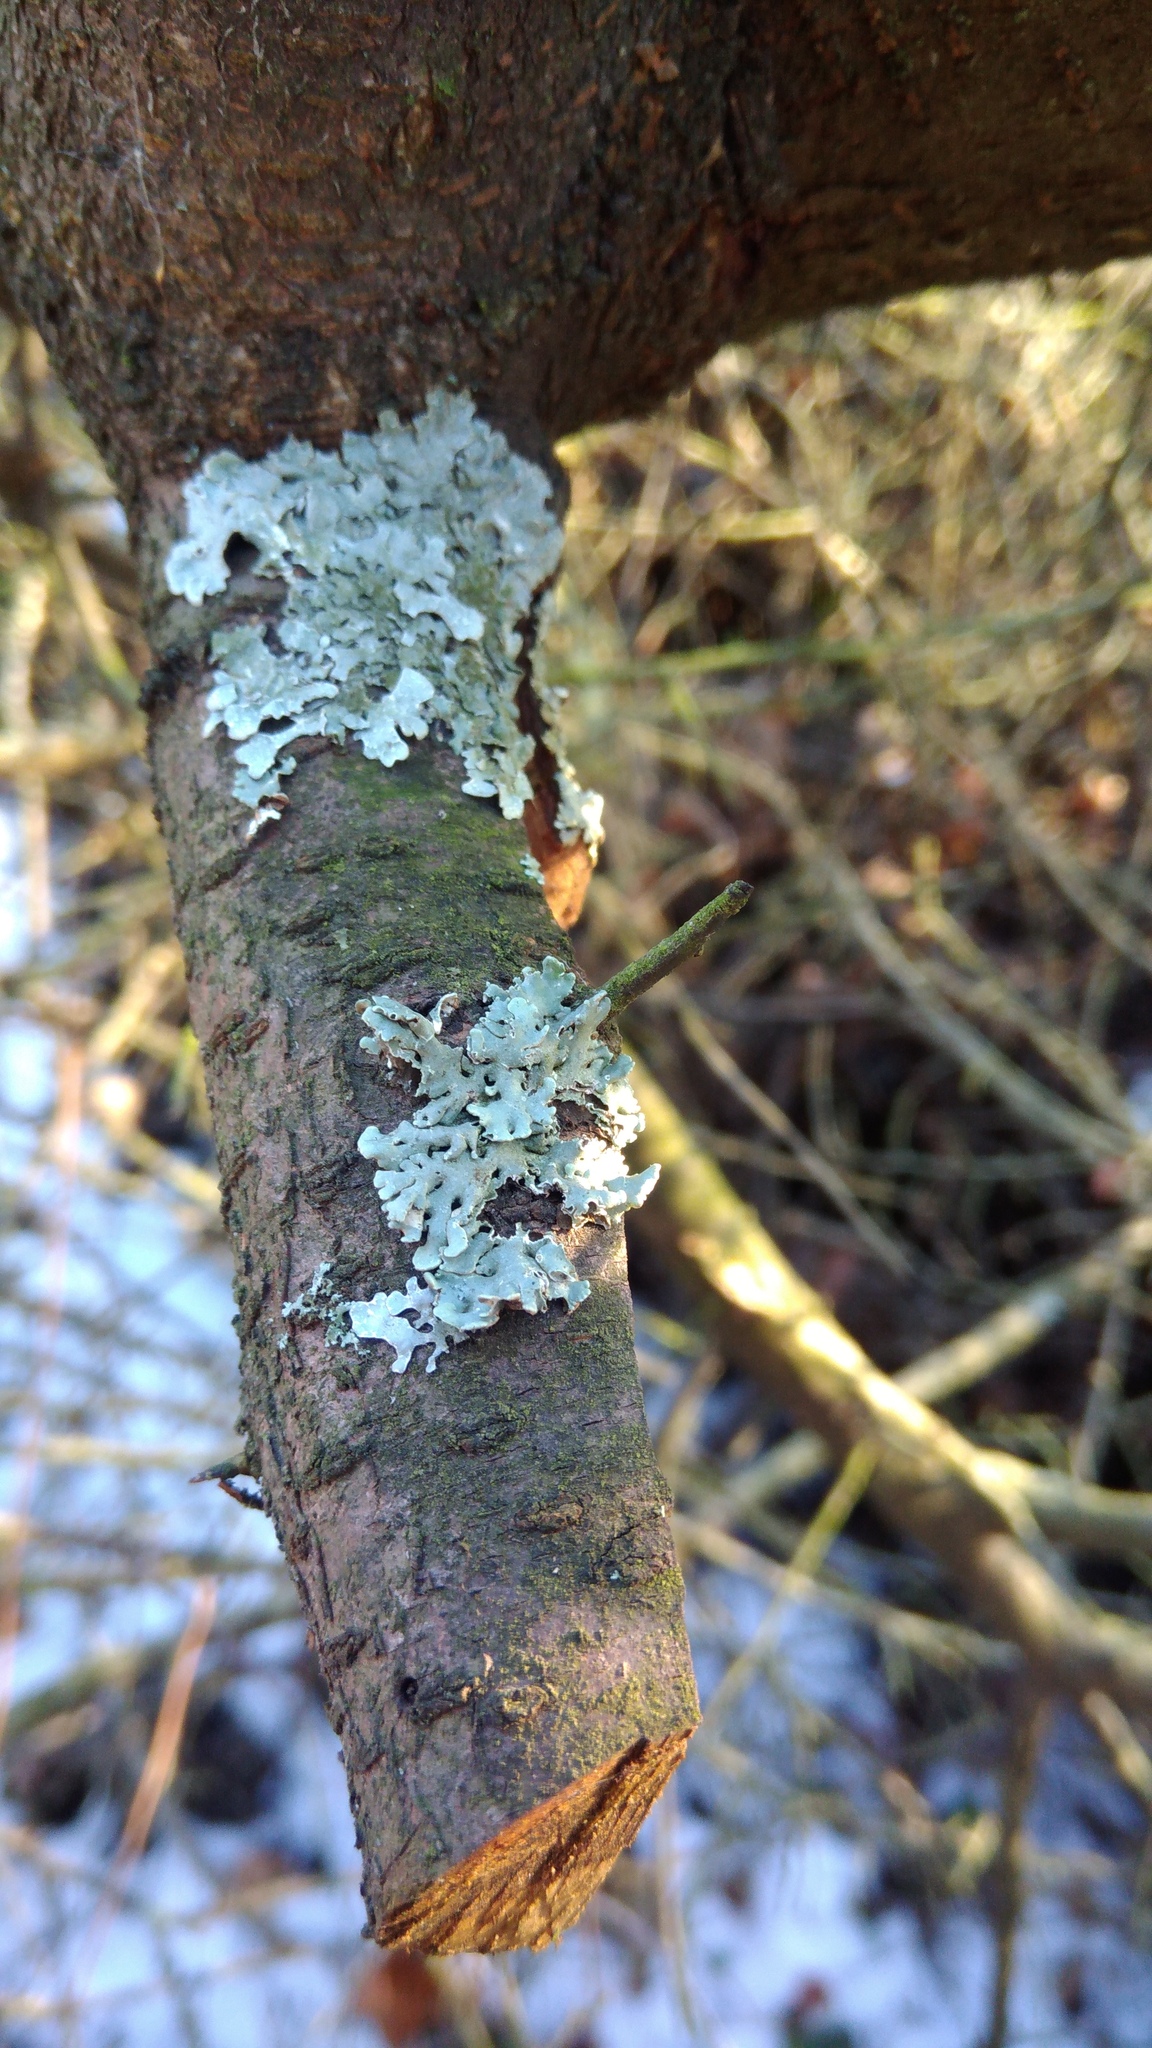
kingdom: Fungi
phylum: Ascomycota
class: Lecanoromycetes
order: Lecanorales
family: Parmeliaceae
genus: Hypogymnia
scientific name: Hypogymnia physodes
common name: Dark crottle
